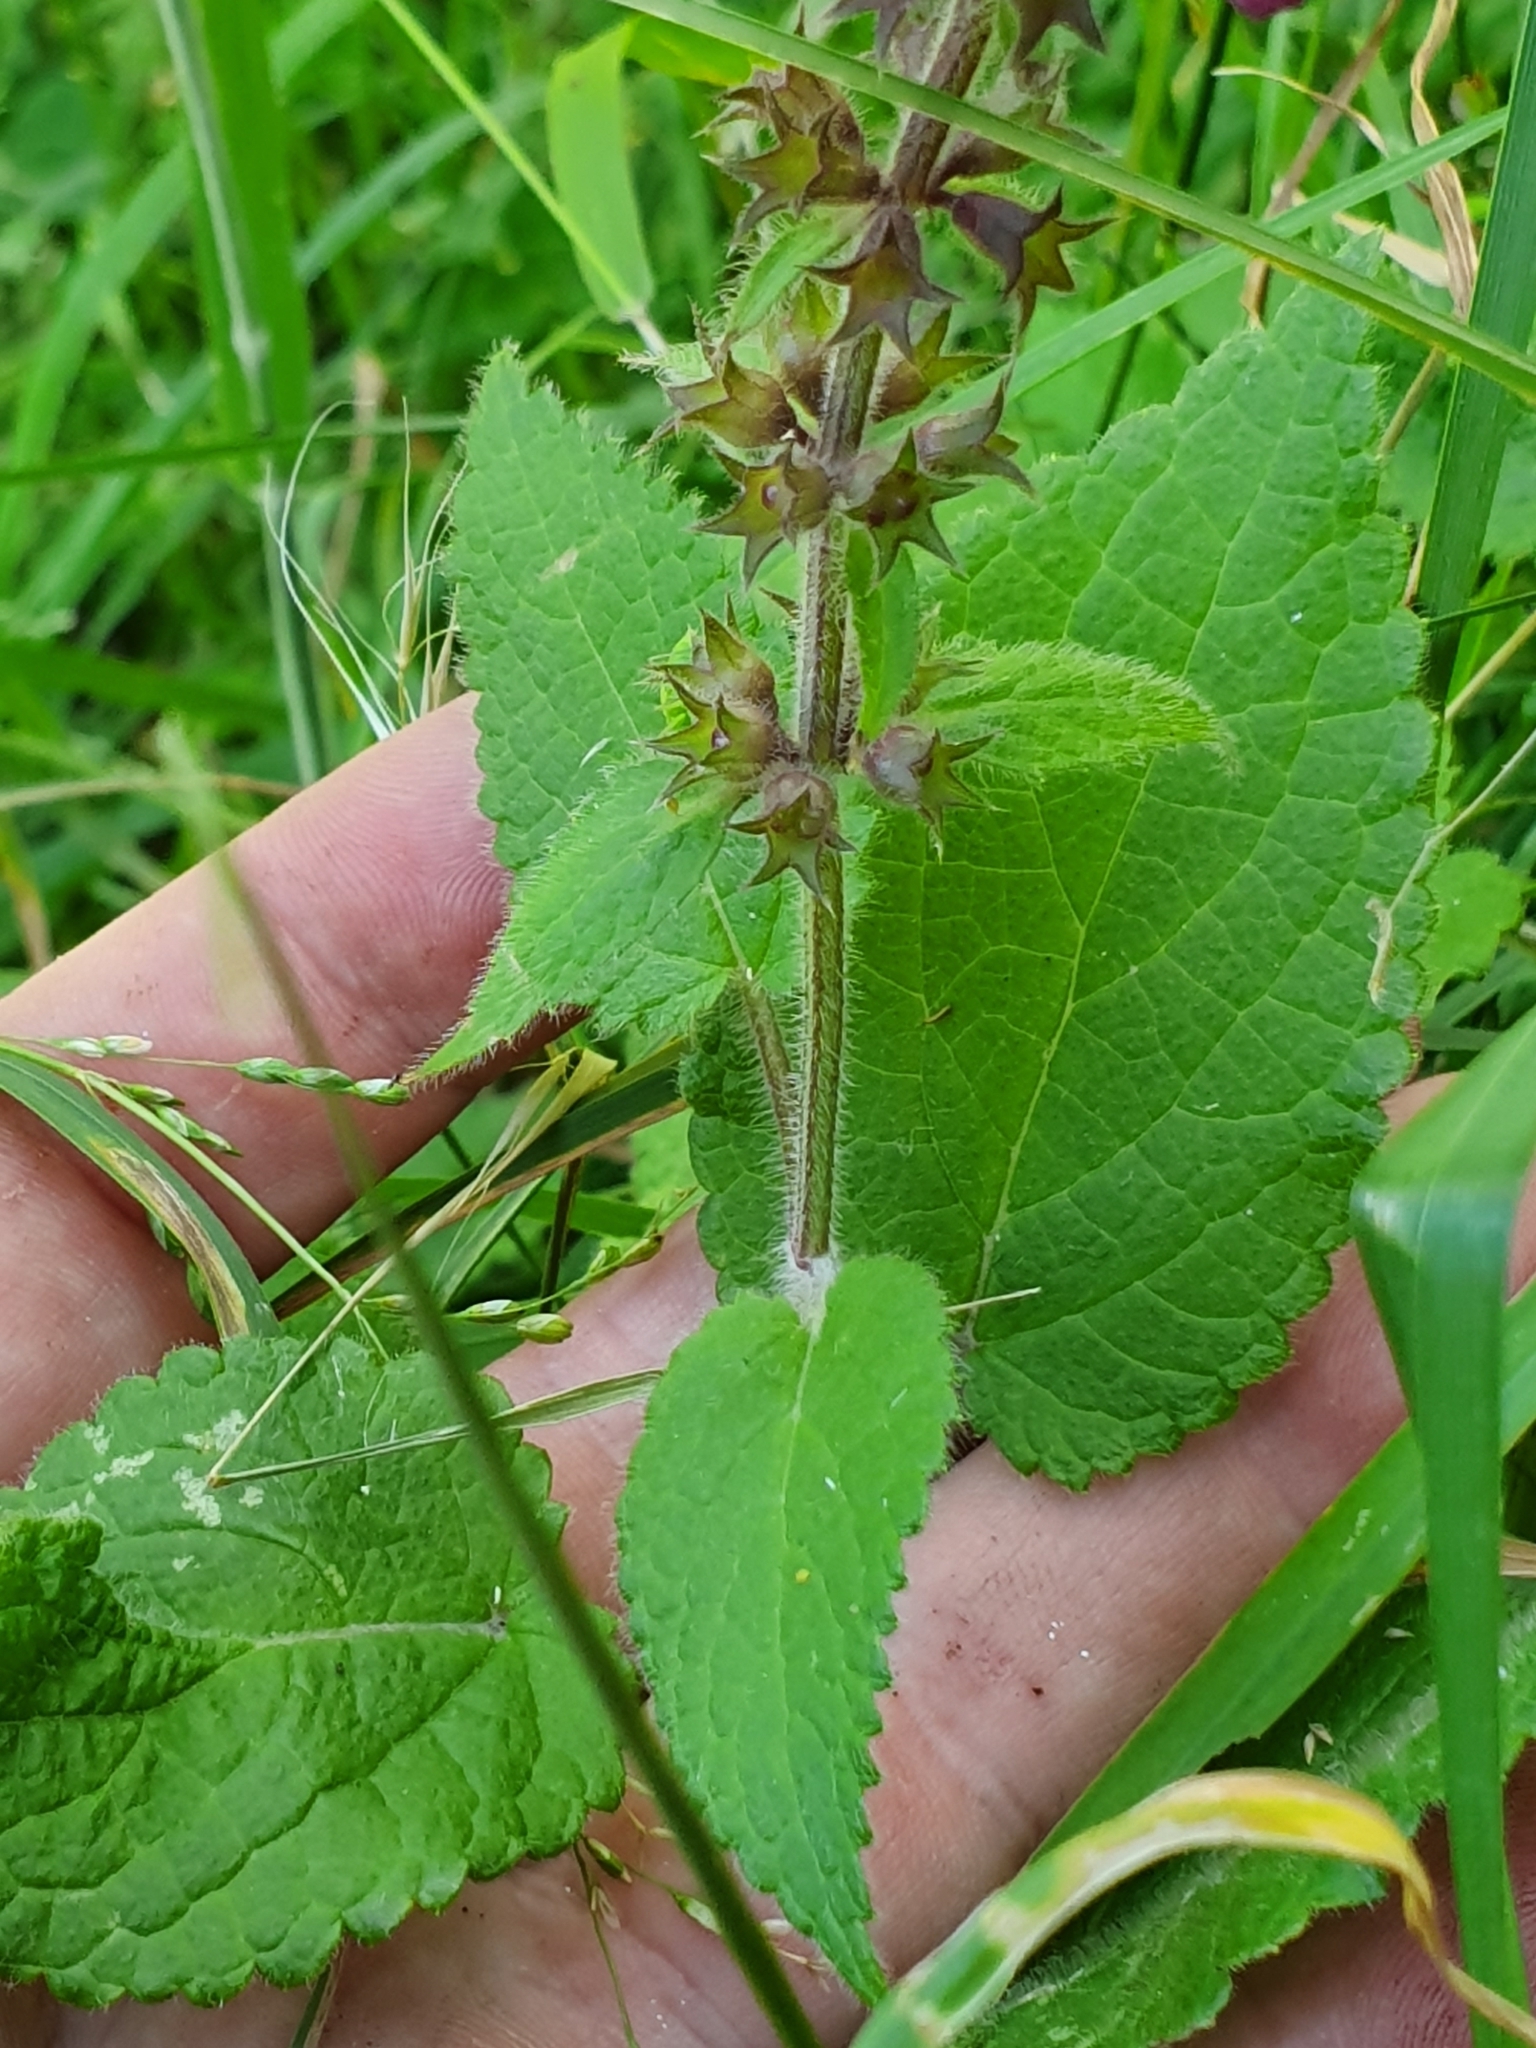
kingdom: Plantae
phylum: Tracheophyta
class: Magnoliopsida
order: Lamiales
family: Lamiaceae
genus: Stachys
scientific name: Stachys sylvatica
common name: Hedge woundwort
